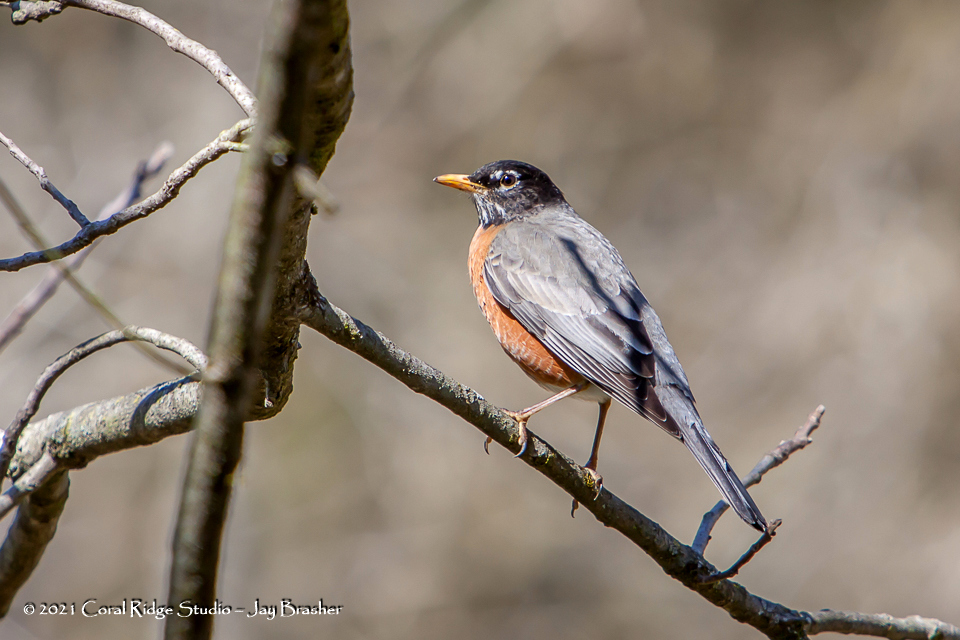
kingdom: Animalia
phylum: Chordata
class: Aves
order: Passeriformes
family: Turdidae
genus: Turdus
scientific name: Turdus migratorius
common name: American robin
